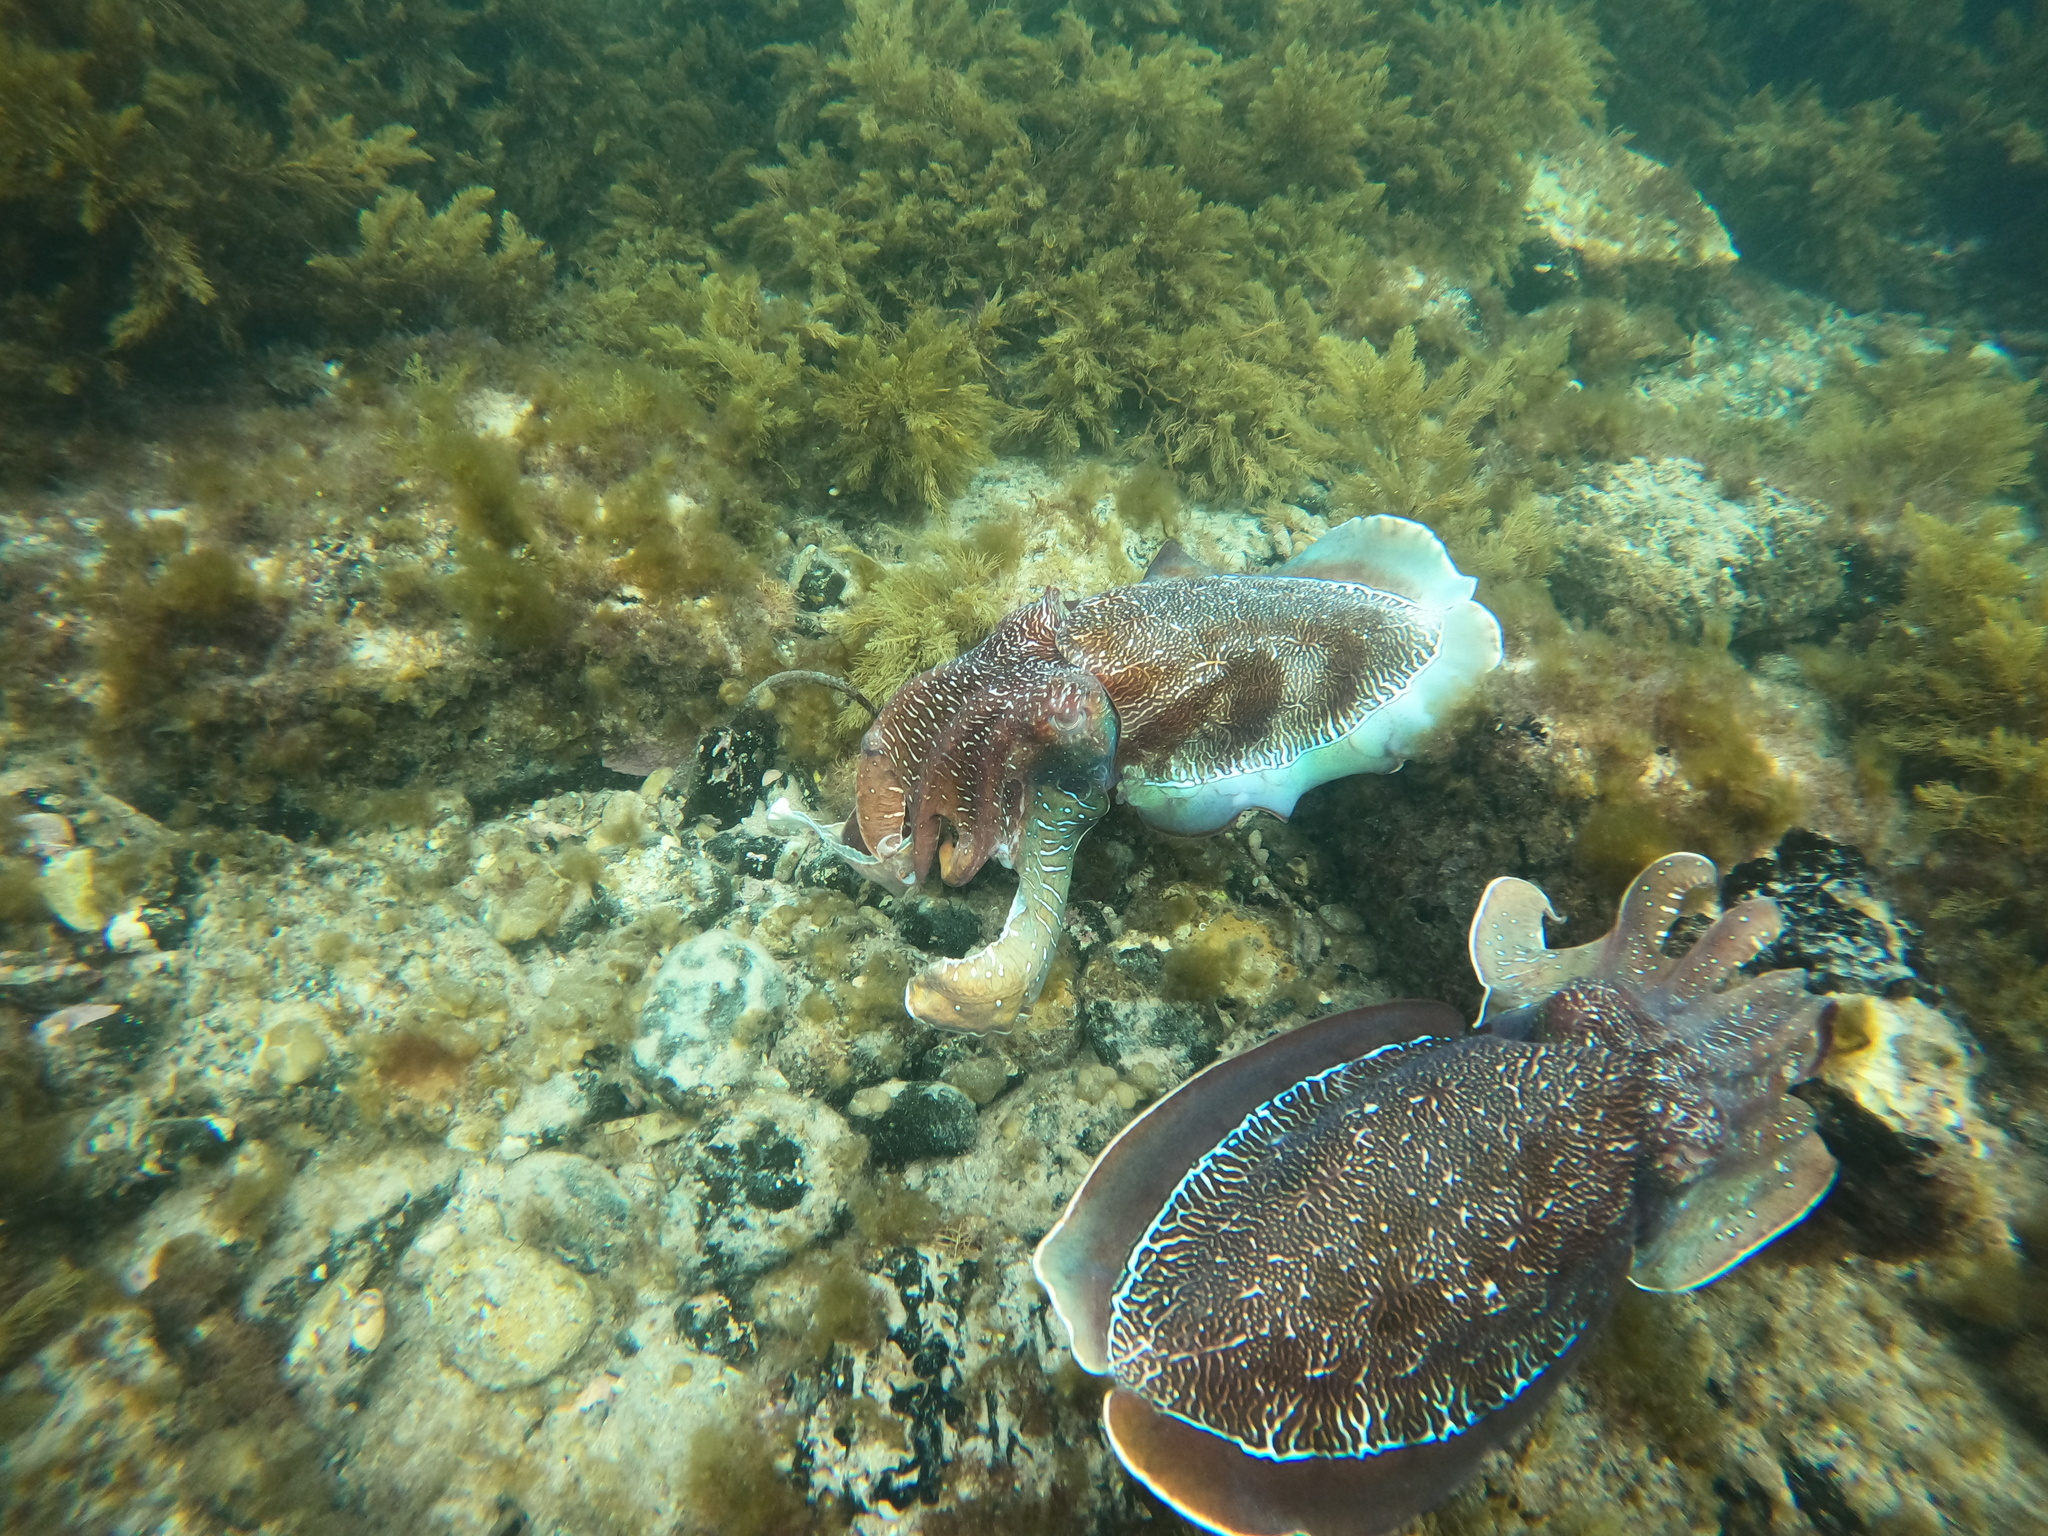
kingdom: Animalia
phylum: Mollusca
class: Cephalopoda
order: Sepiida
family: Sepiidae
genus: Ascarosepion
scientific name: Ascarosepion apama
